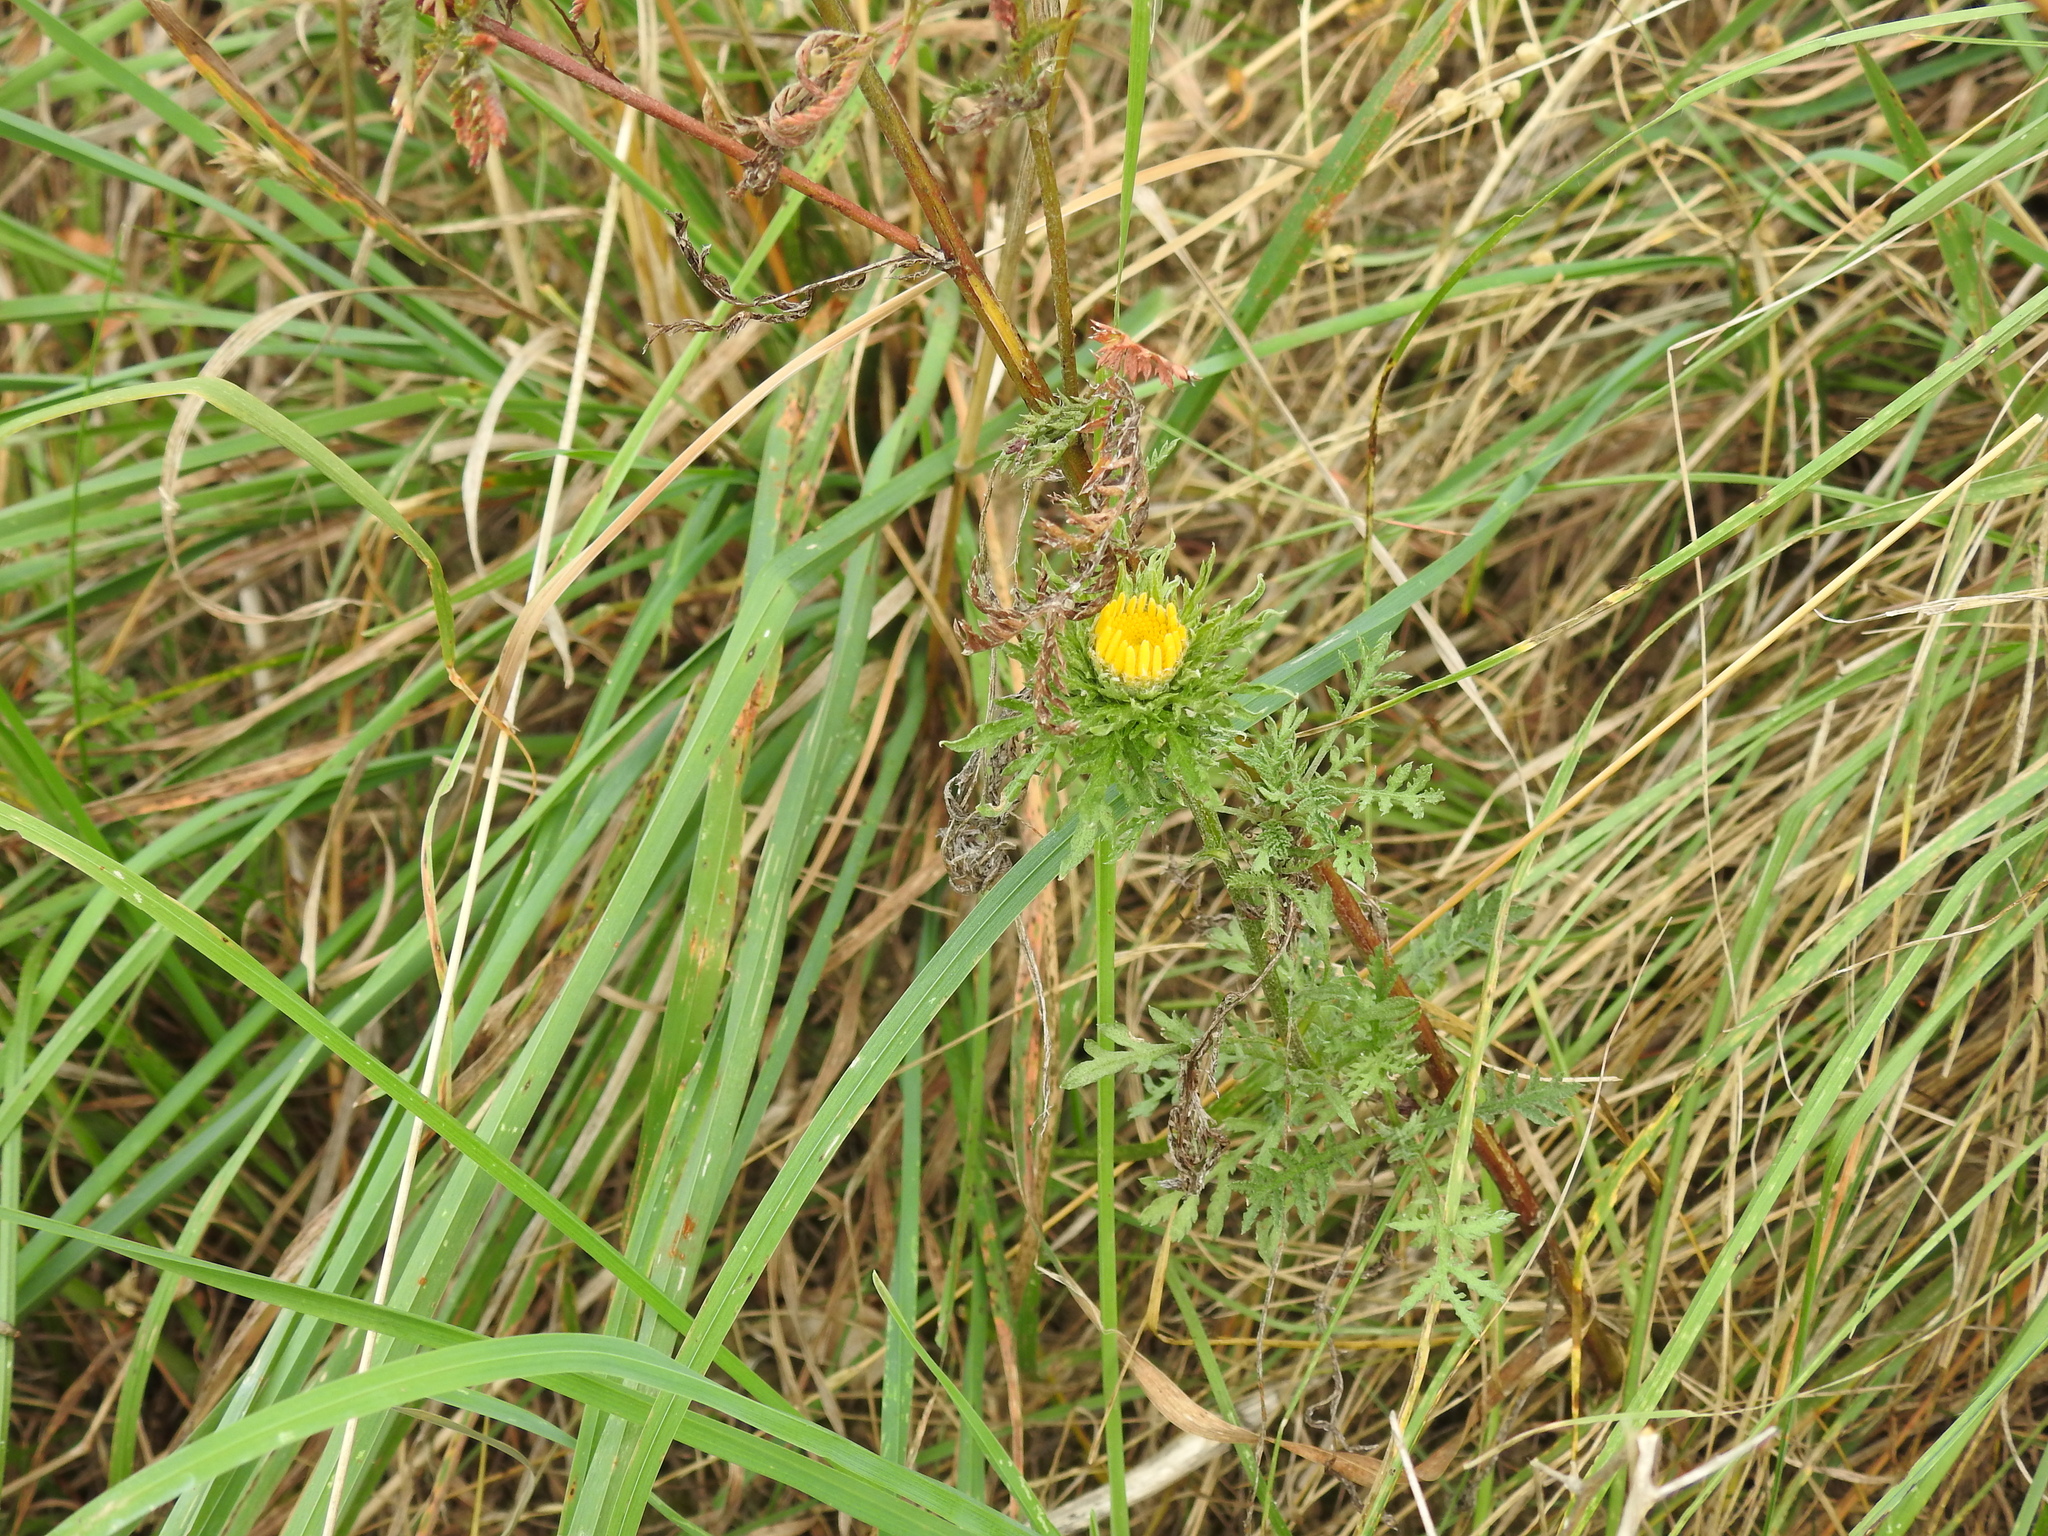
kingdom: Plantae
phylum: Tracheophyta
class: Magnoliopsida
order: Asterales
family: Asteraceae
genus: Cota
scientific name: Cota tinctoria
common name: Golden chamomile
